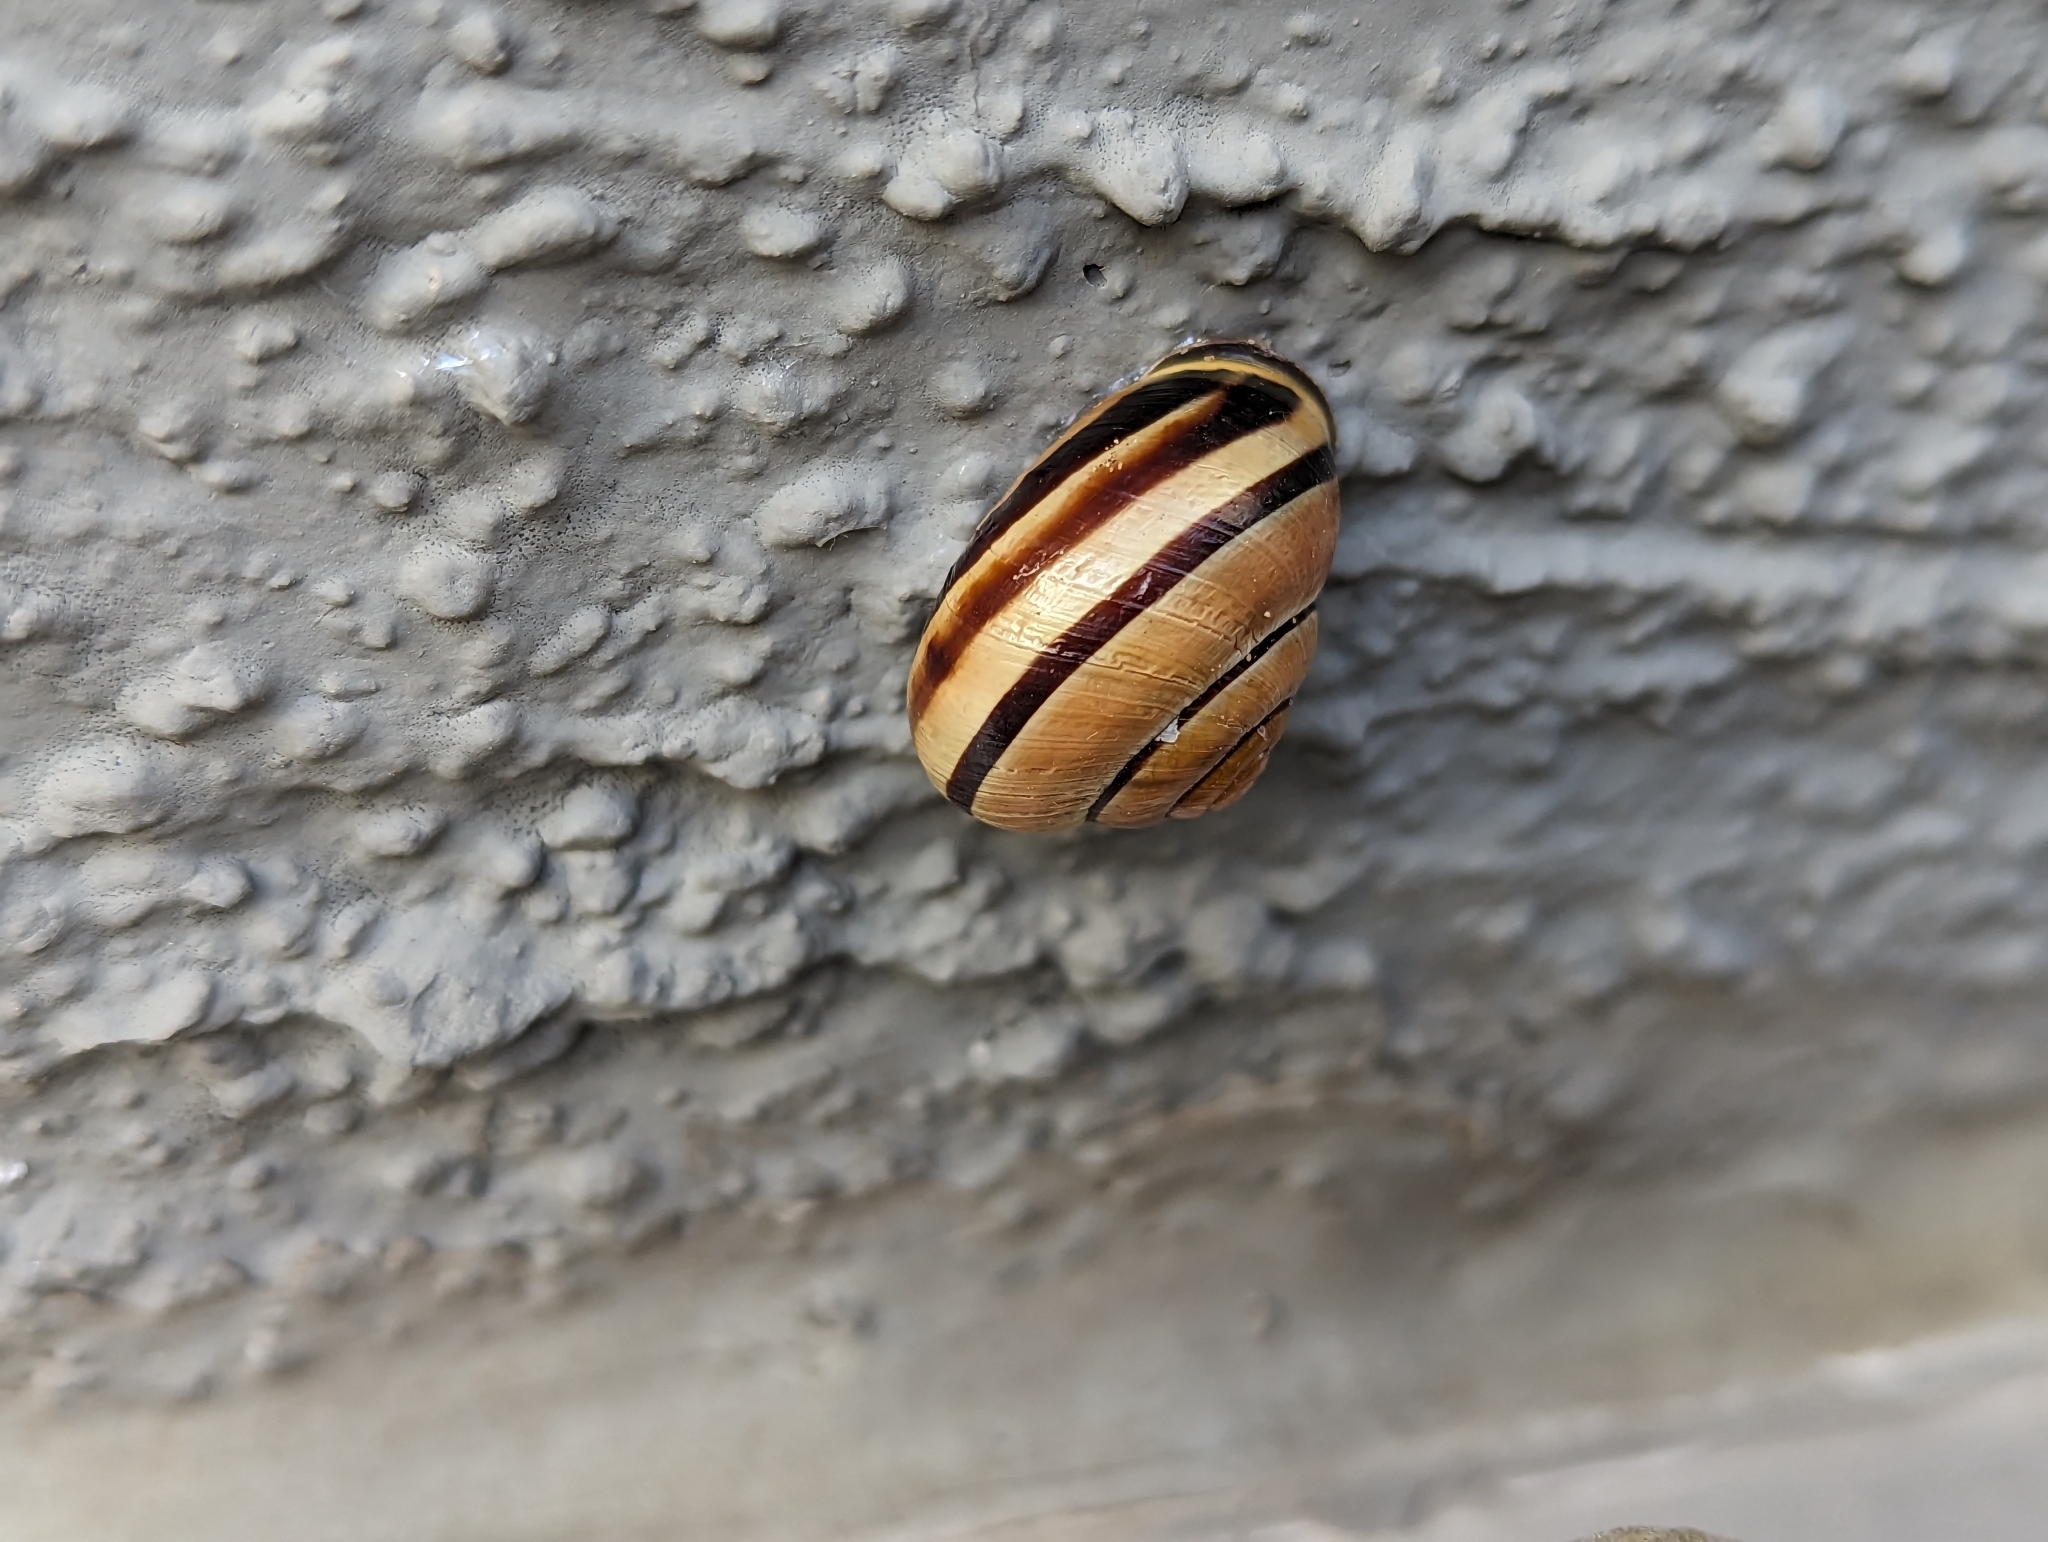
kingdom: Animalia
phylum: Mollusca
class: Gastropoda
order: Stylommatophora
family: Helicidae
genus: Cepaea
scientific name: Cepaea nemoralis
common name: Grovesnail
